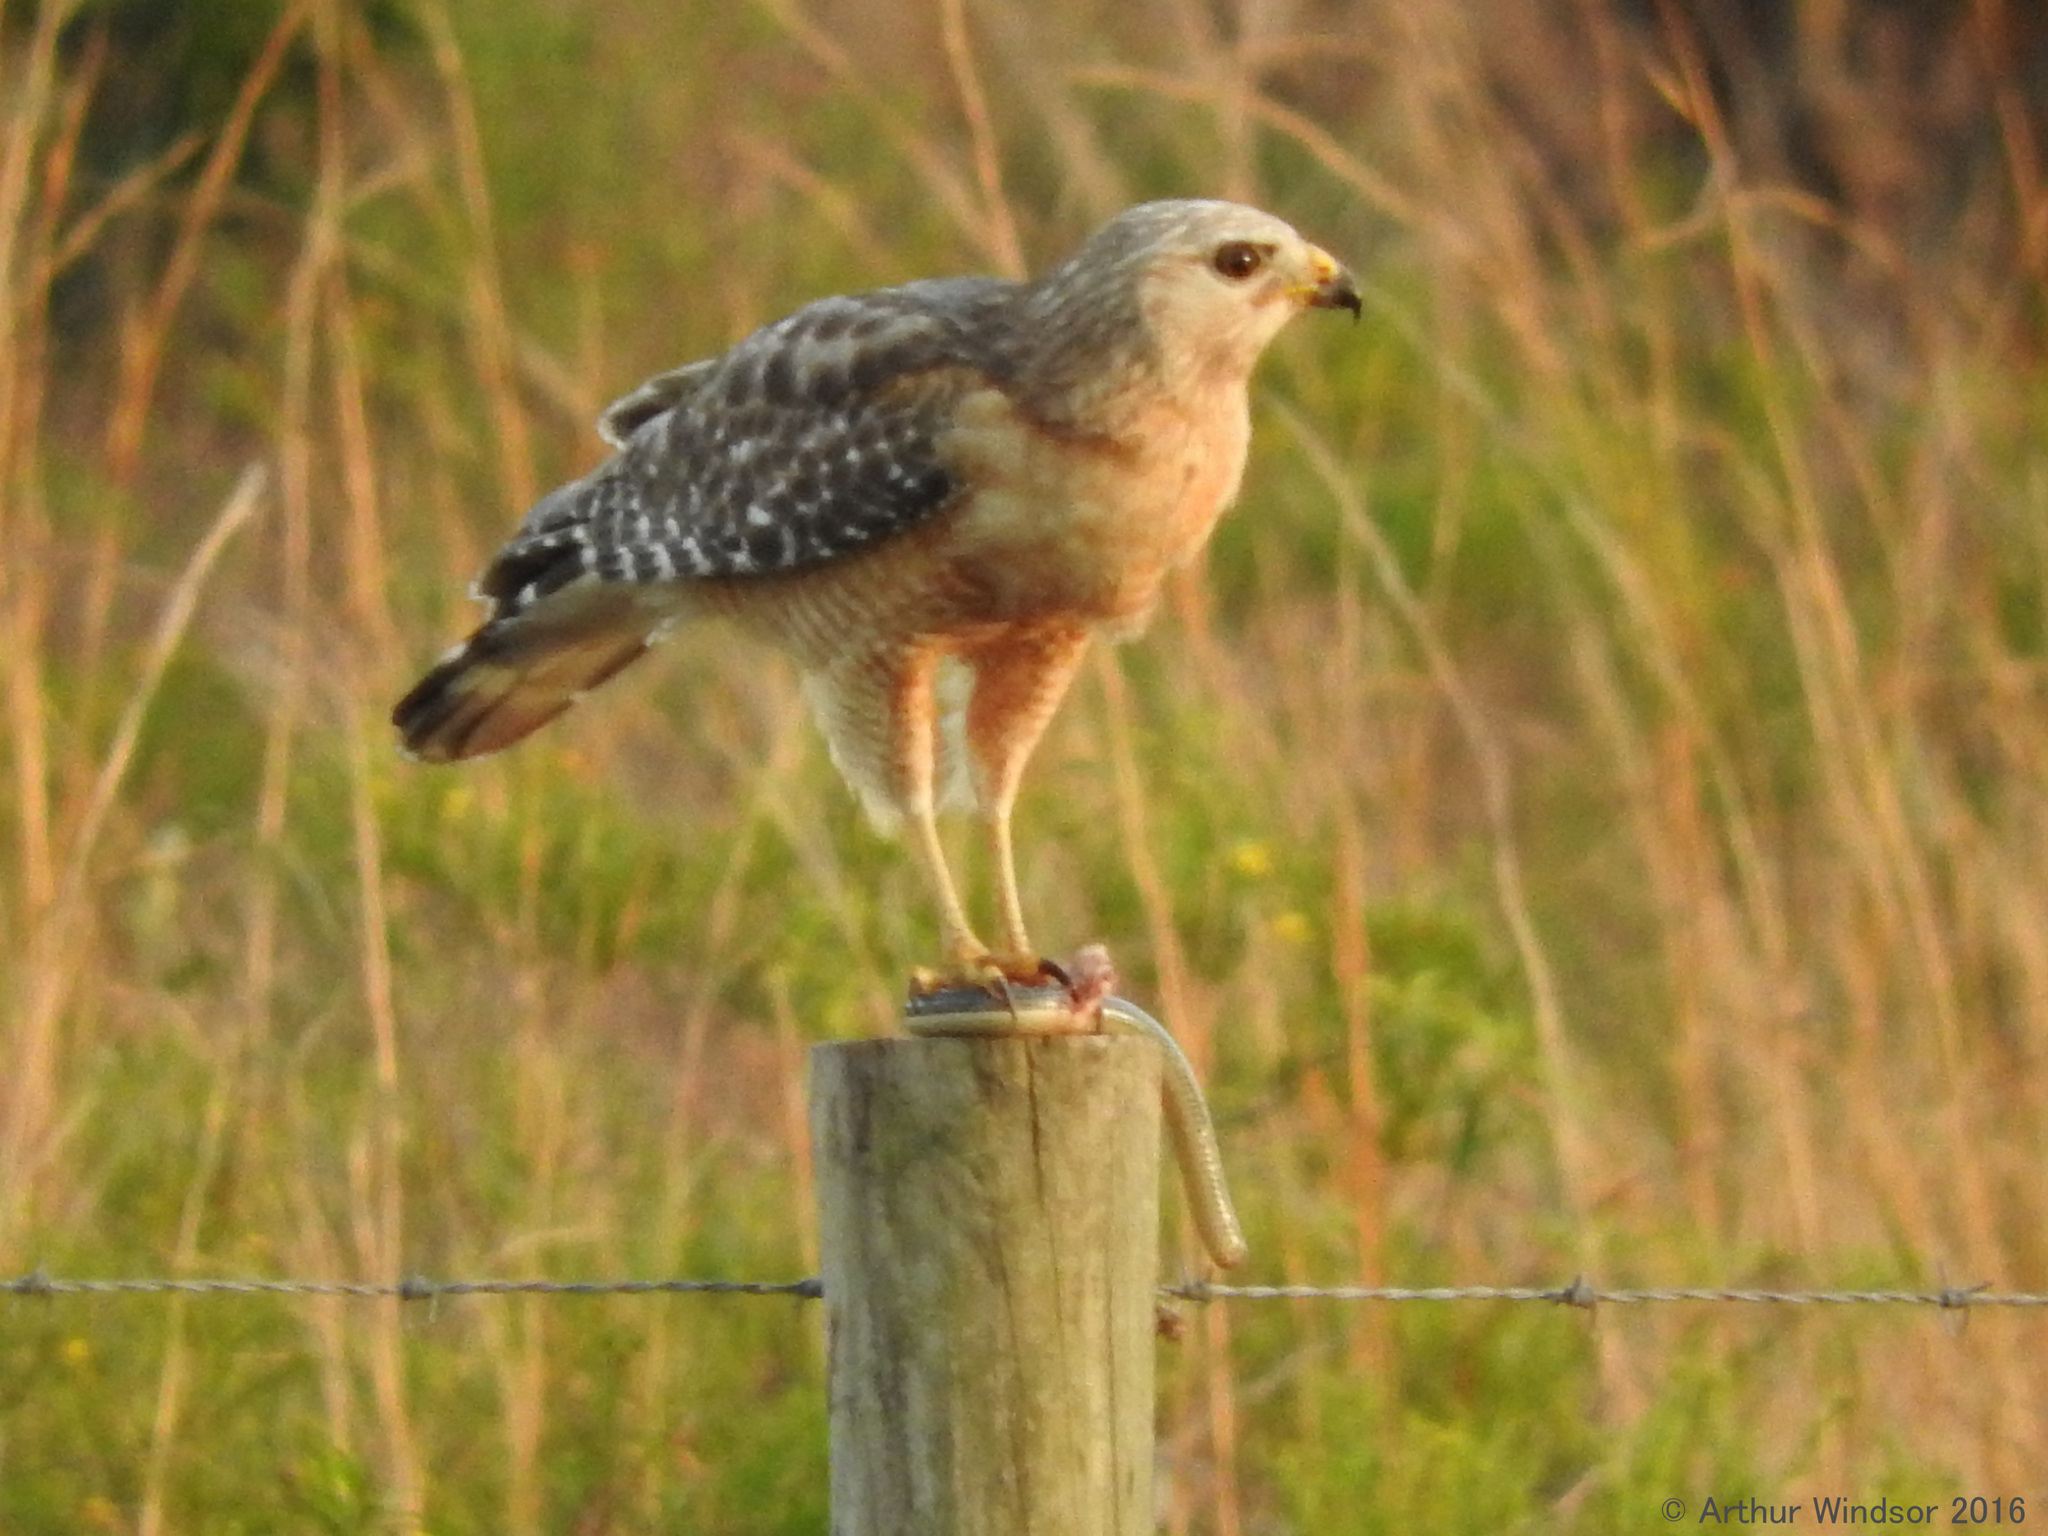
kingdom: Animalia
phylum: Chordata
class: Aves
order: Accipitriformes
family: Accipitridae
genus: Buteo
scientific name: Buteo lineatus
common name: Red-shouldered hawk
